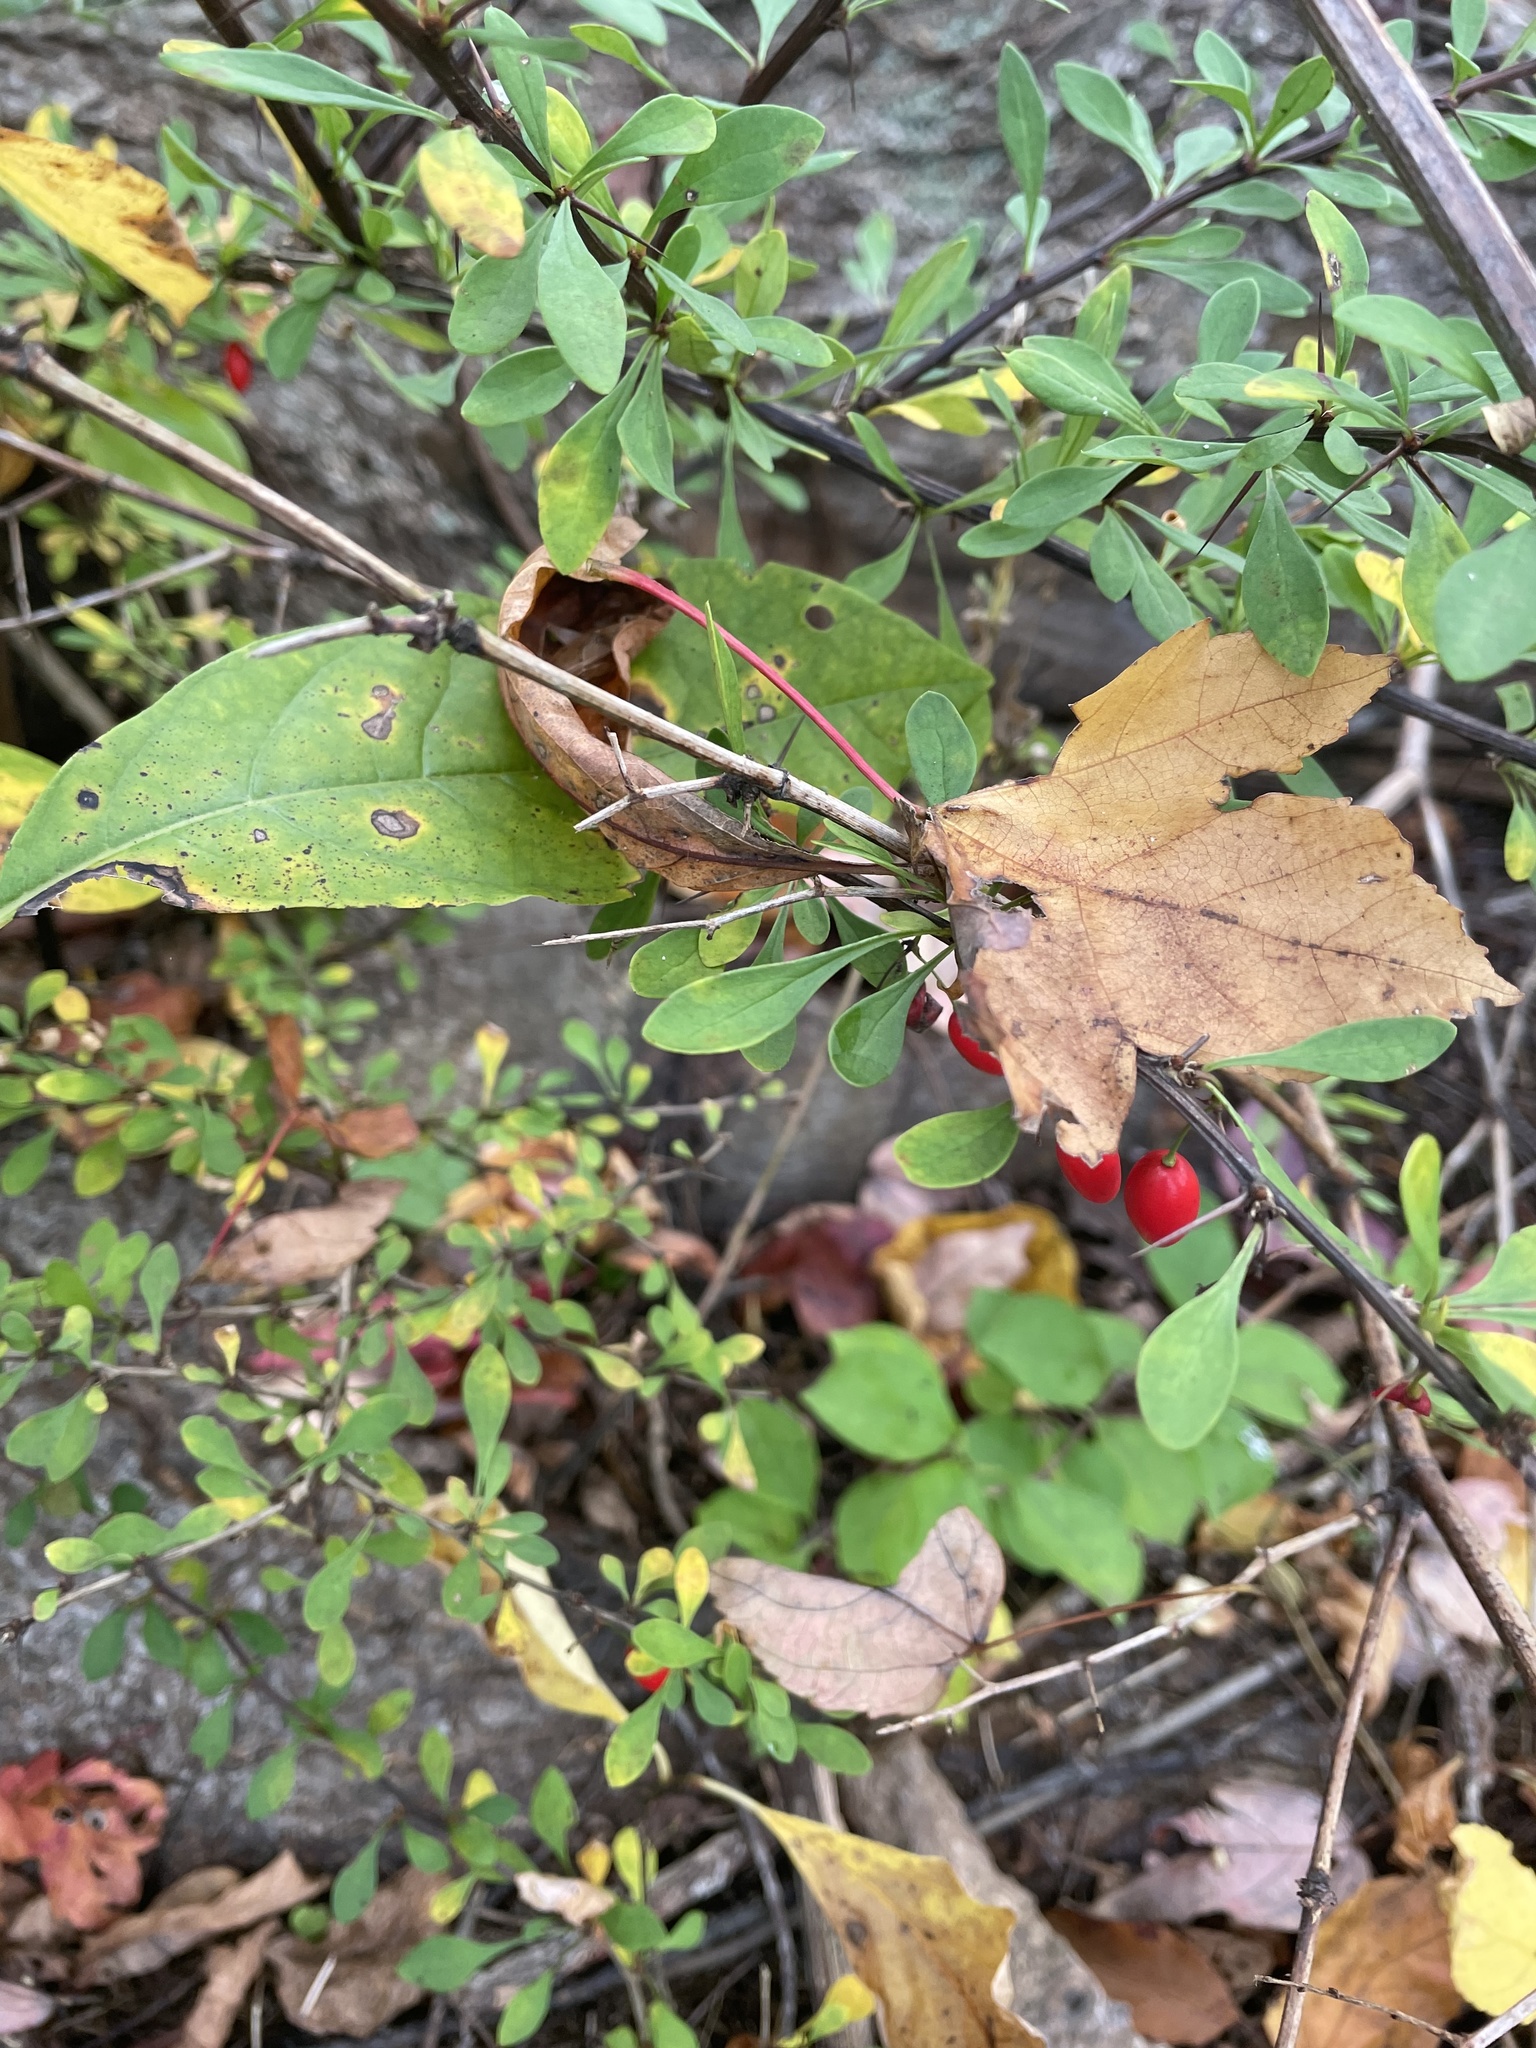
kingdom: Plantae
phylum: Tracheophyta
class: Magnoliopsida
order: Ranunculales
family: Berberidaceae
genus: Berberis
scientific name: Berberis thunbergii
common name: Japanese barberry
